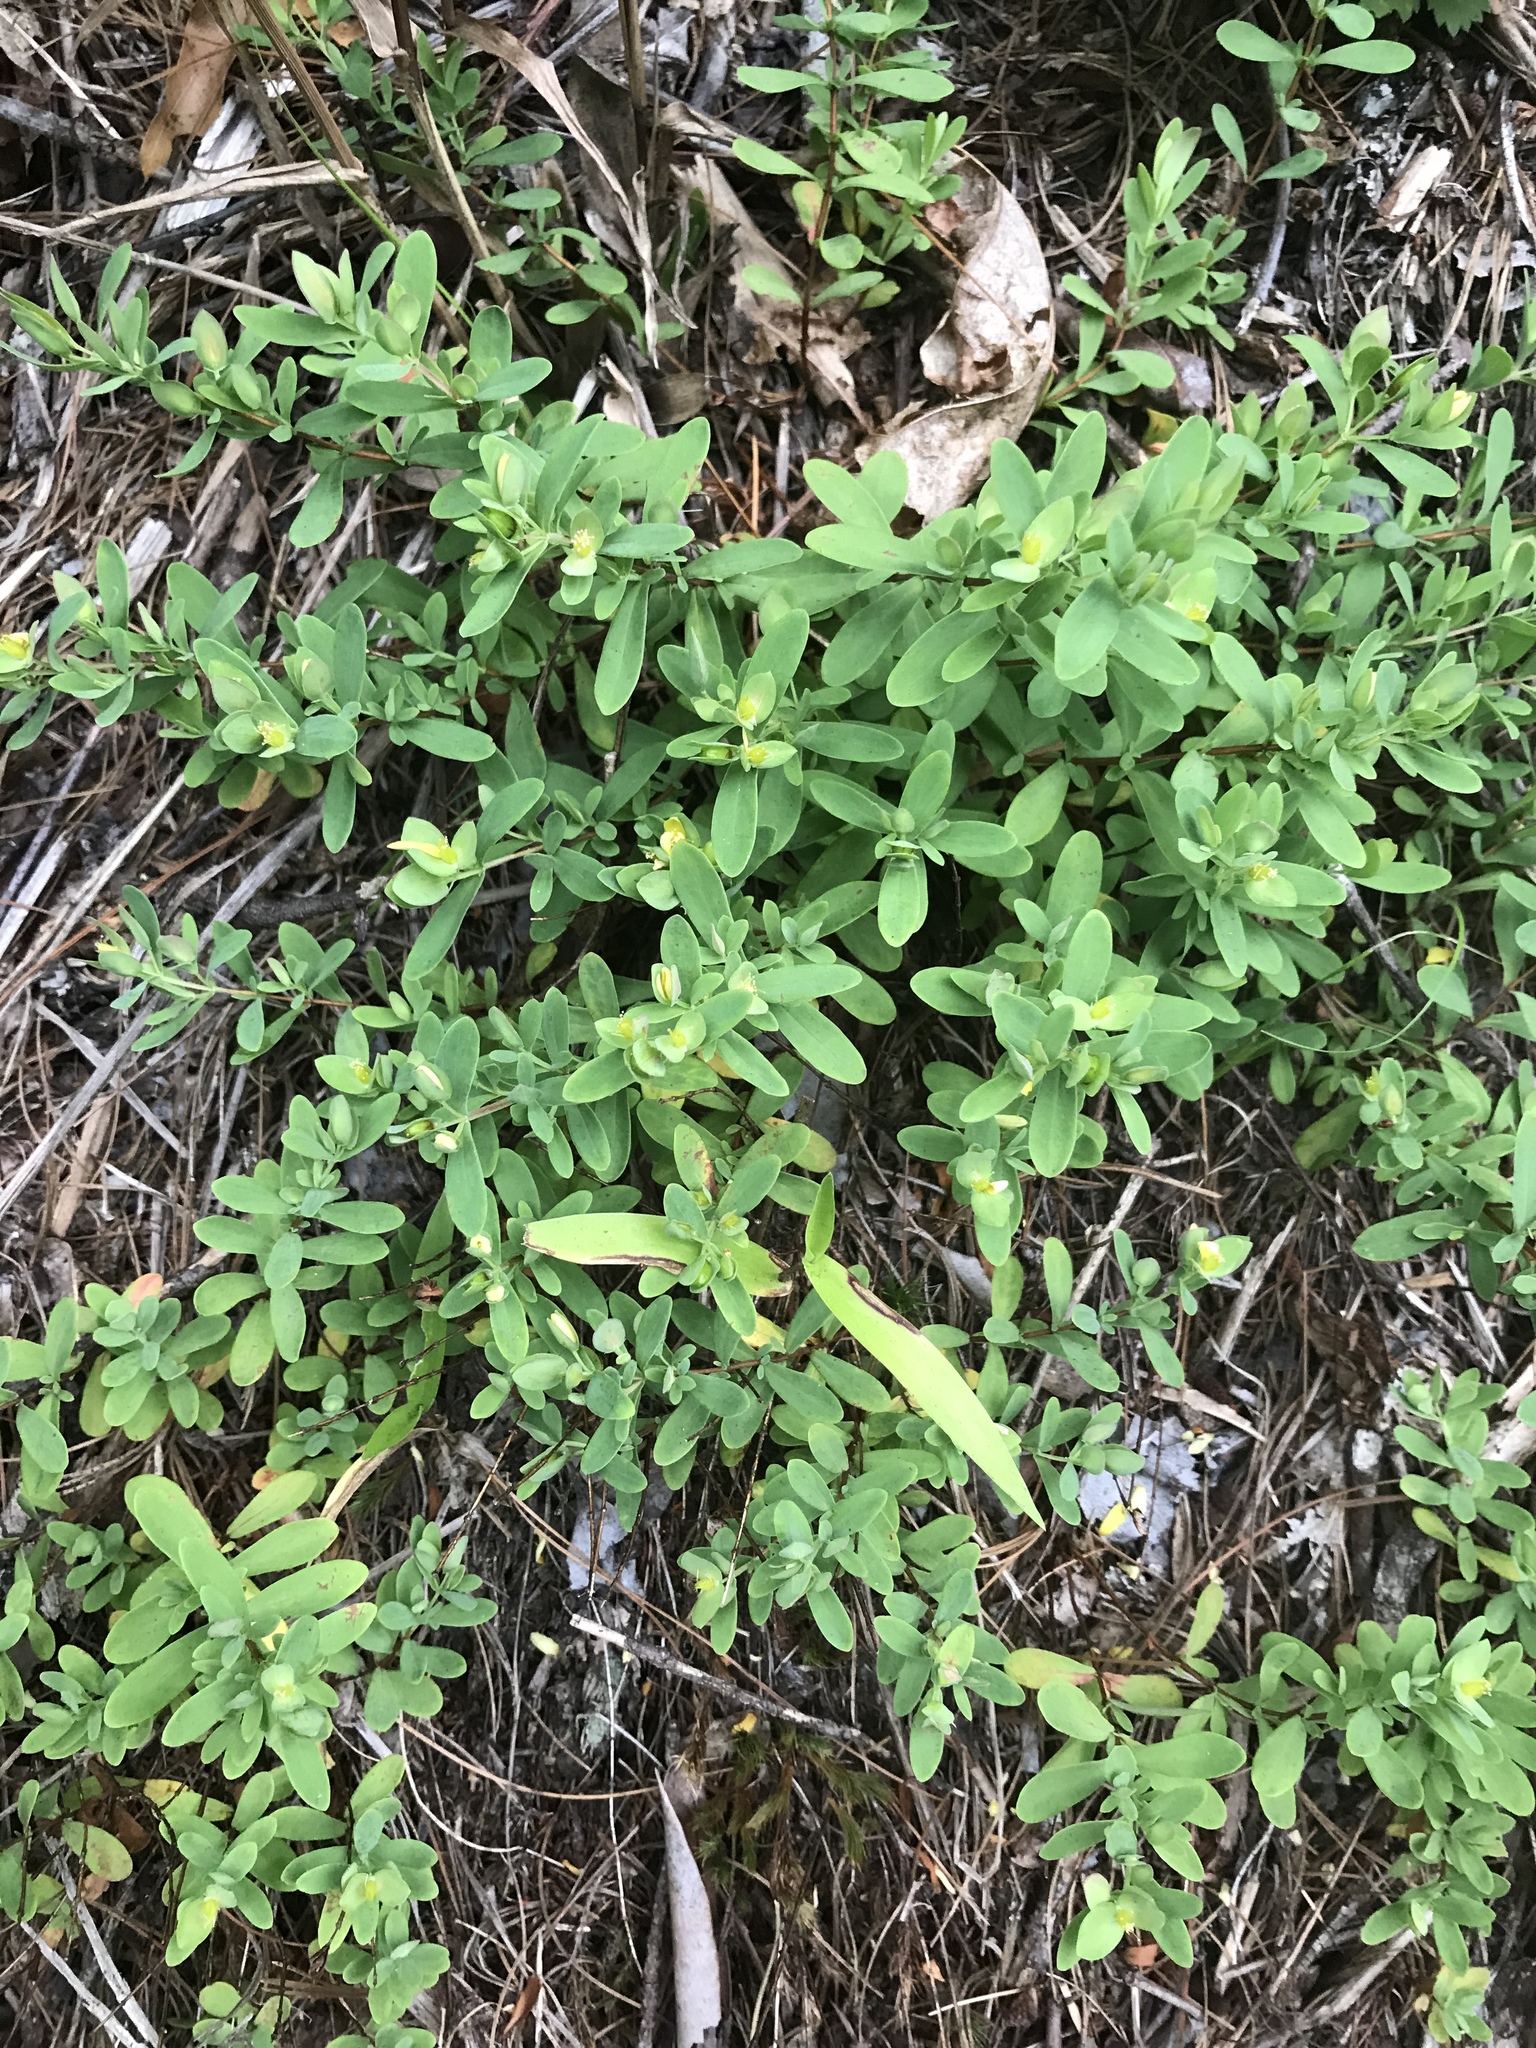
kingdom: Plantae
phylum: Tracheophyta
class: Magnoliopsida
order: Malpighiales
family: Hypericaceae
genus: Hypericum
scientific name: Hypericum hypericoides
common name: St. andrew's cross
